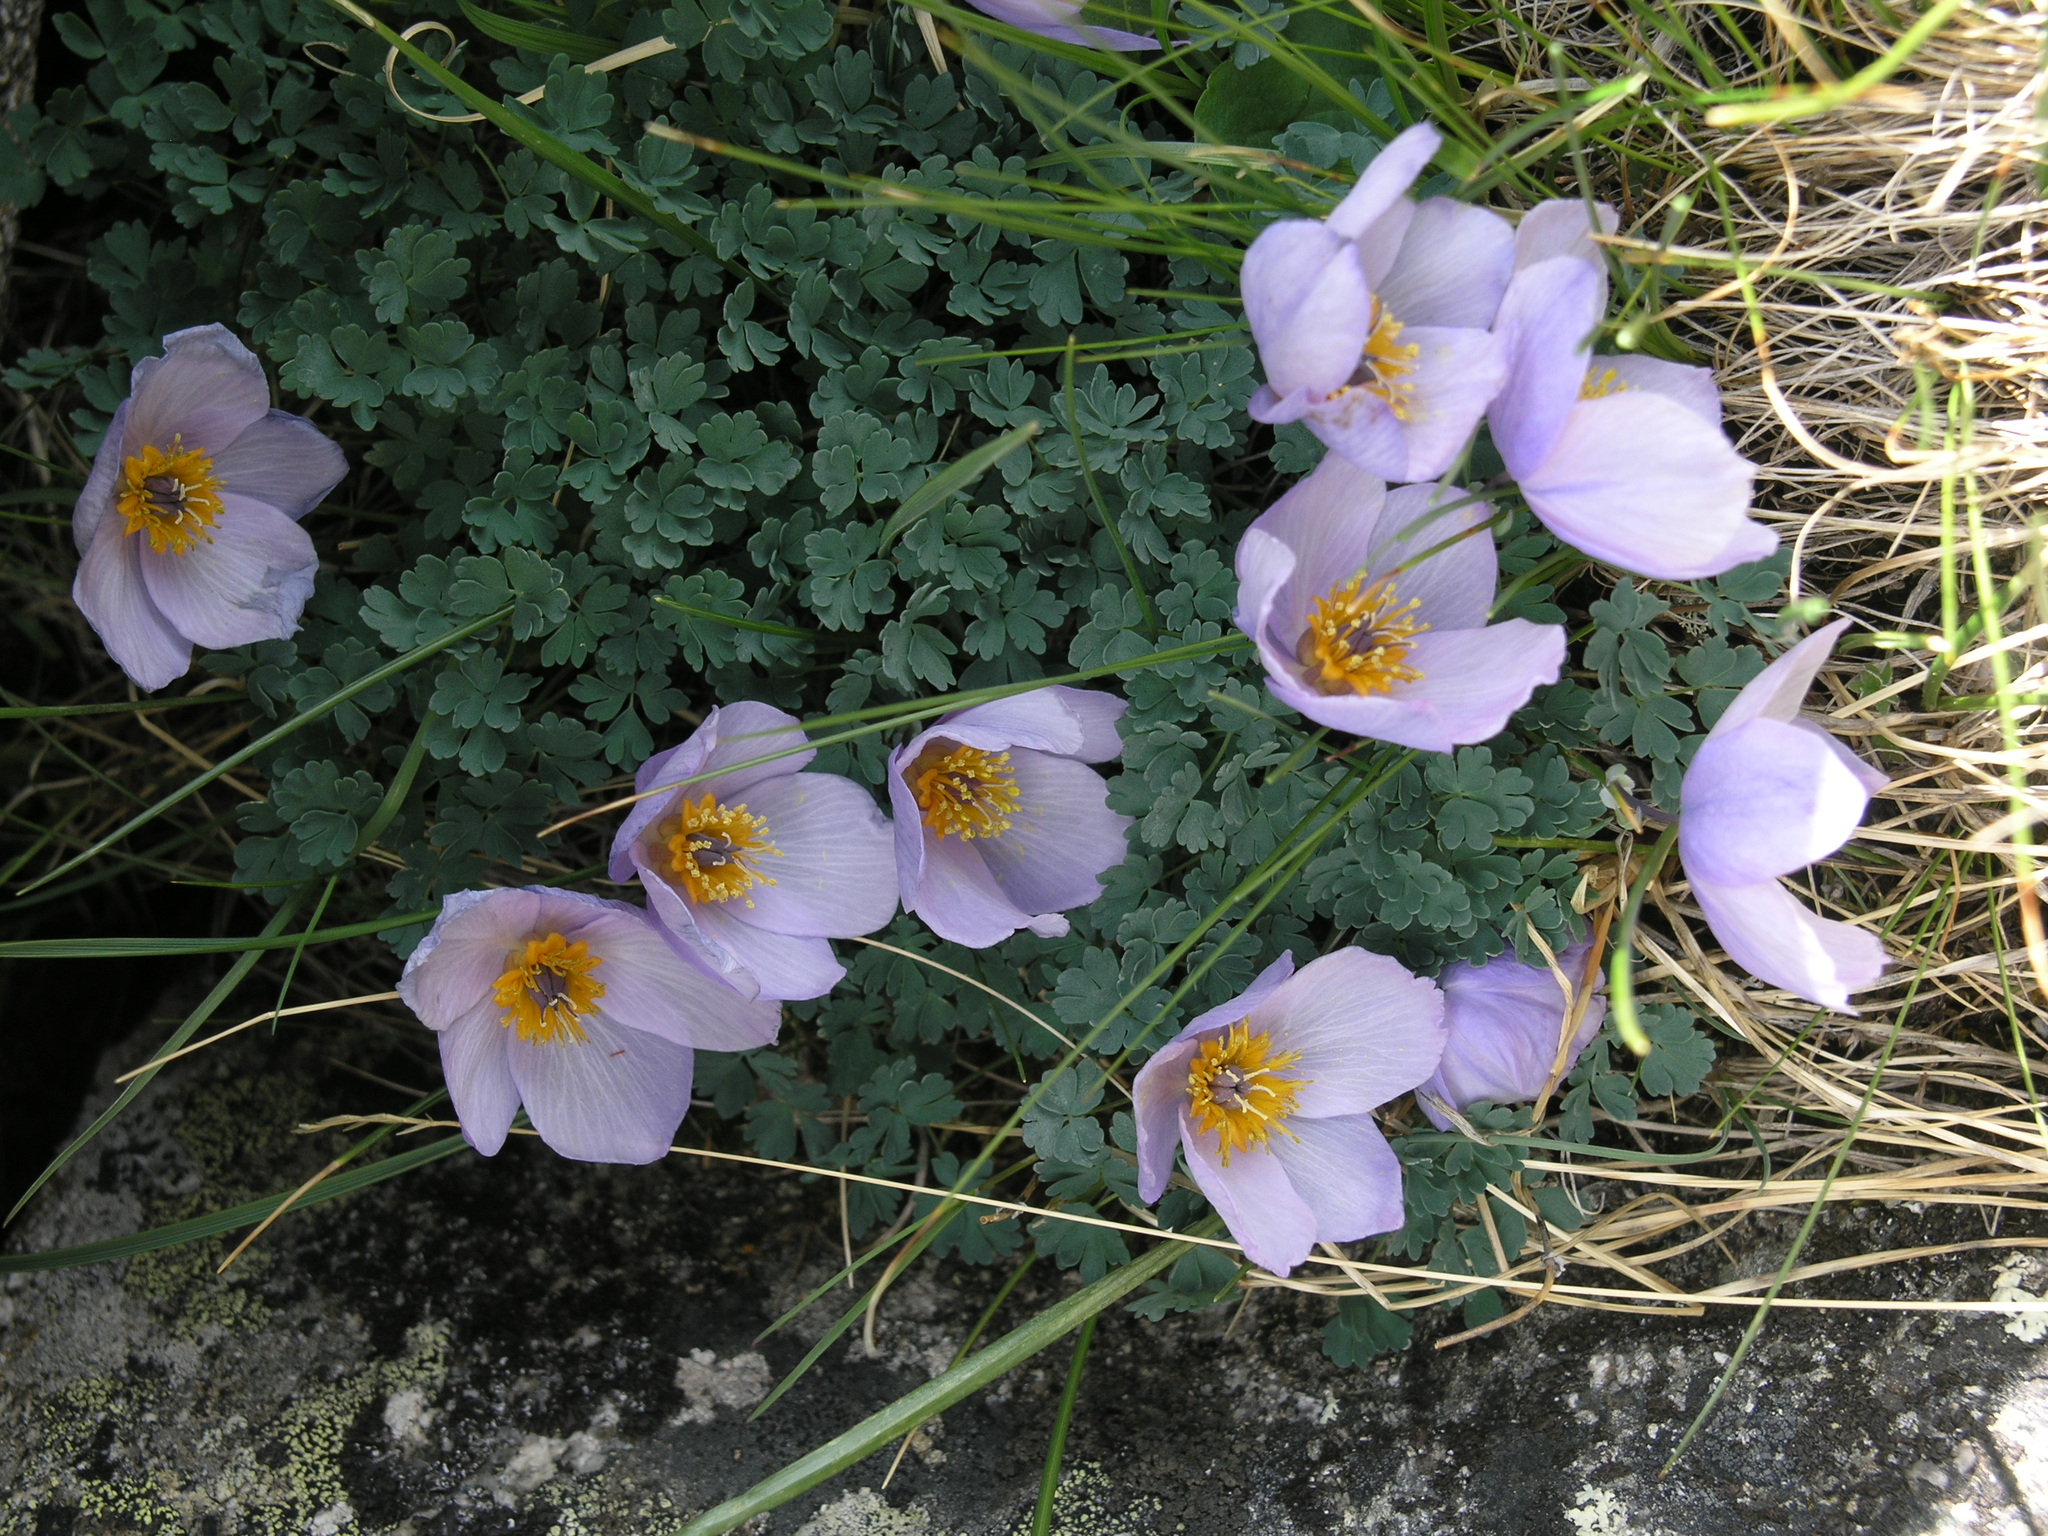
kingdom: Plantae
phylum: Tracheophyta
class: Magnoliopsida
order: Ranunculales
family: Ranunculaceae
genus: Paraquilegia
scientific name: Paraquilegia microphylla
